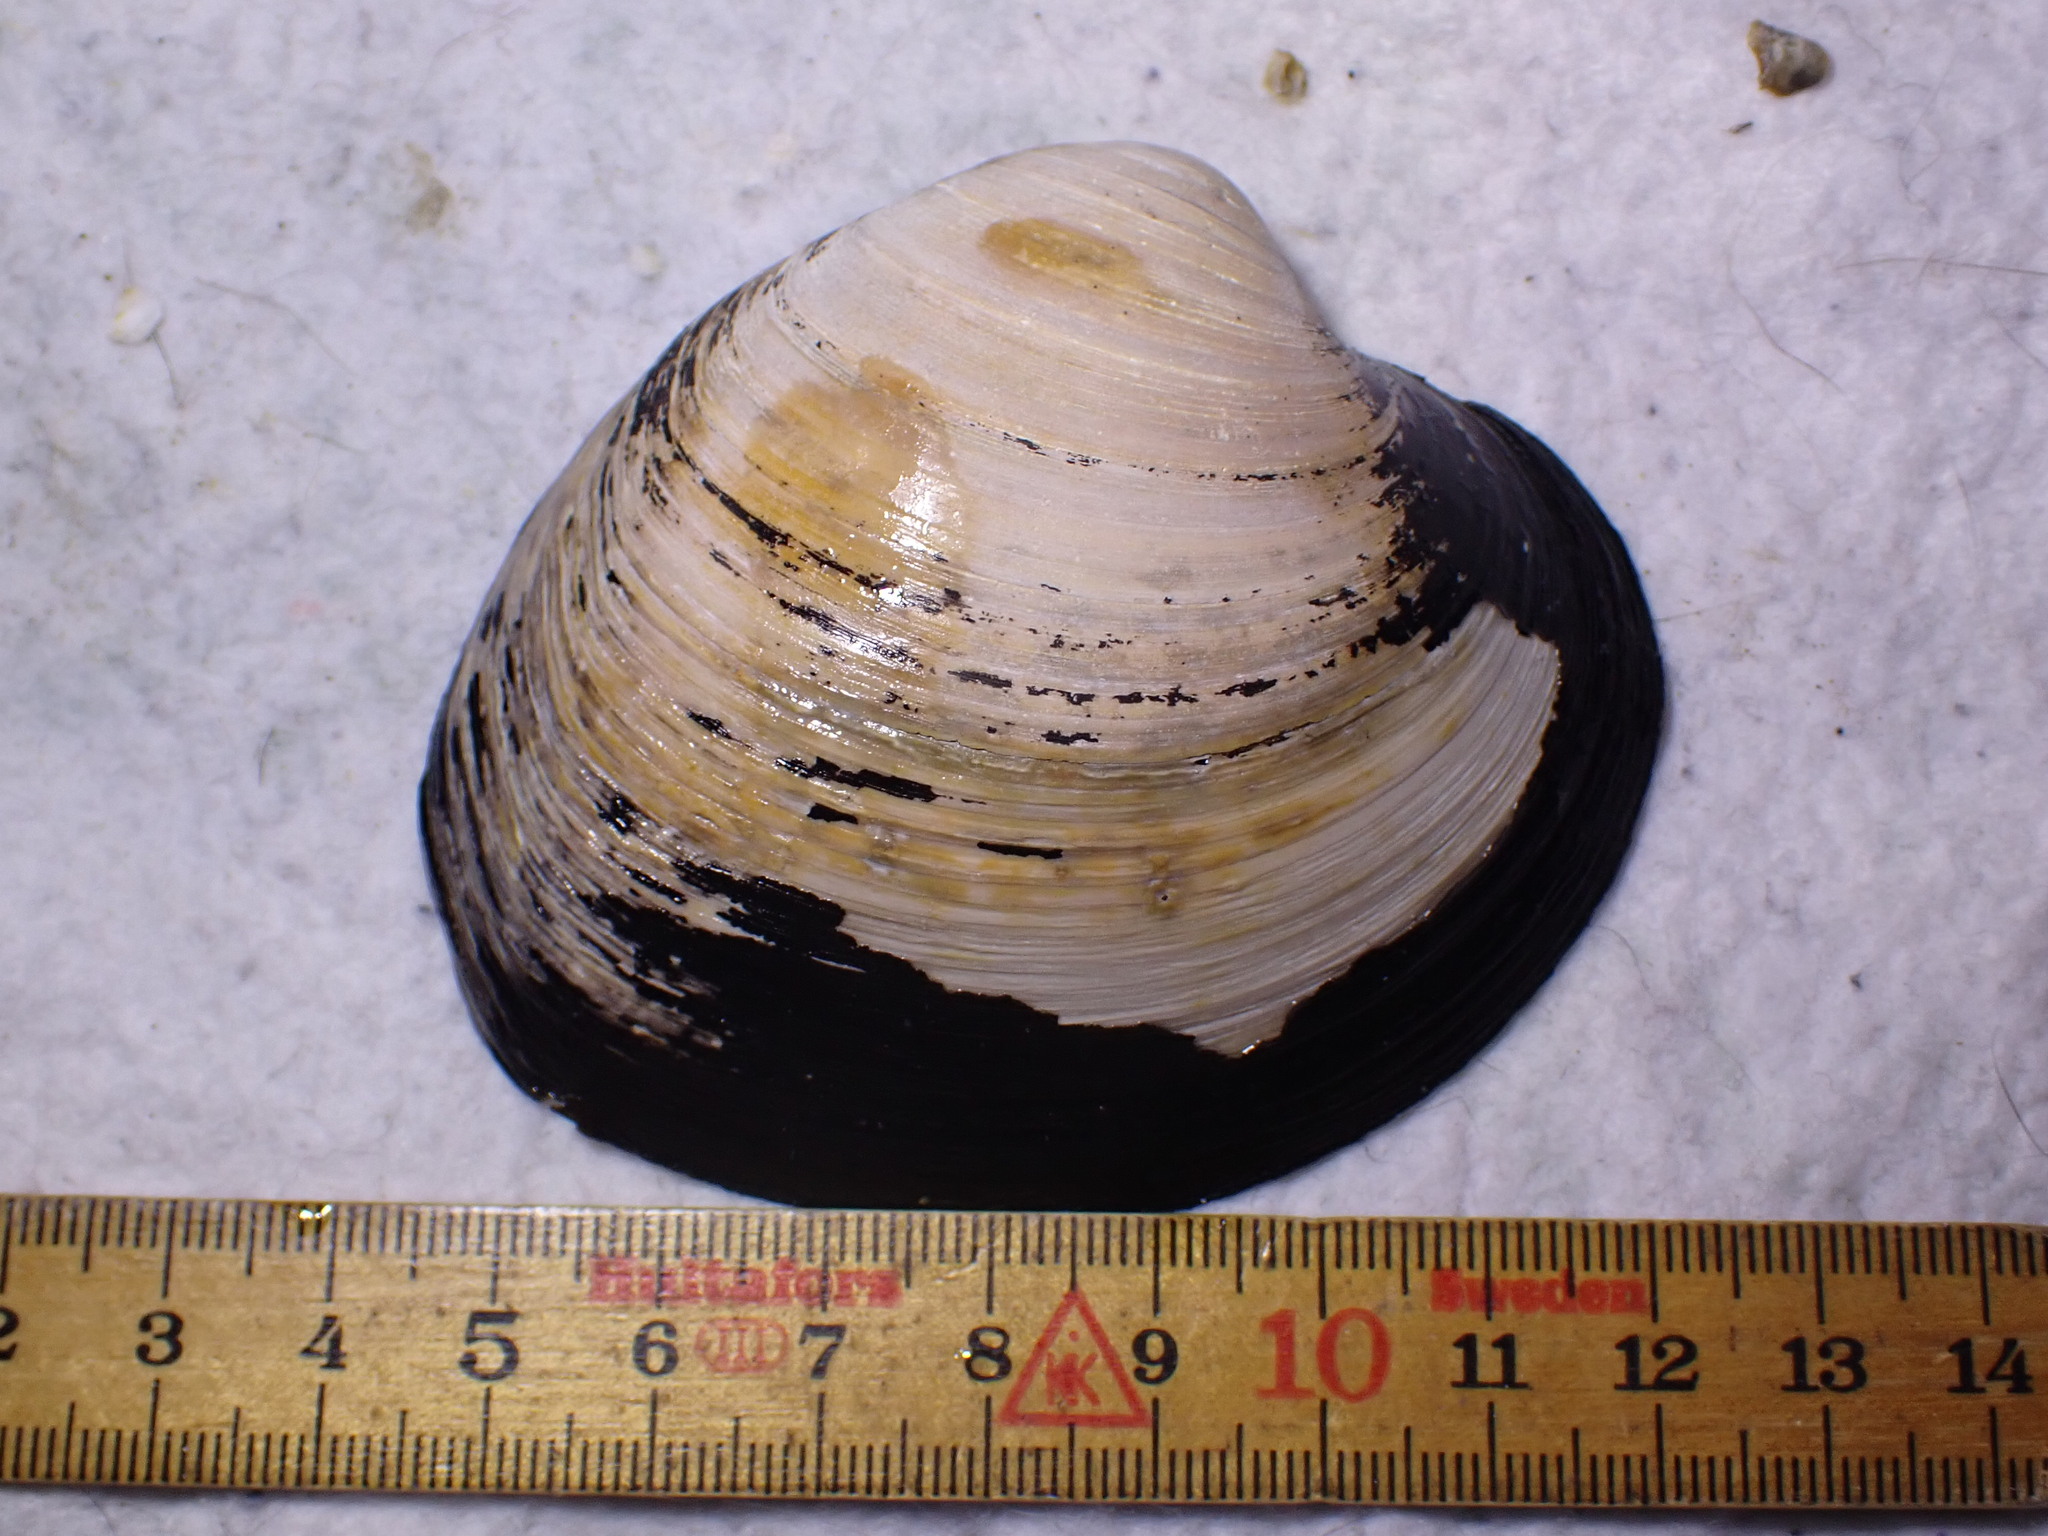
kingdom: Animalia
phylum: Mollusca
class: Bivalvia
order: Venerida
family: Arcticidae
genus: Arctica
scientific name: Arctica islandica
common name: Icelandic cyprine
